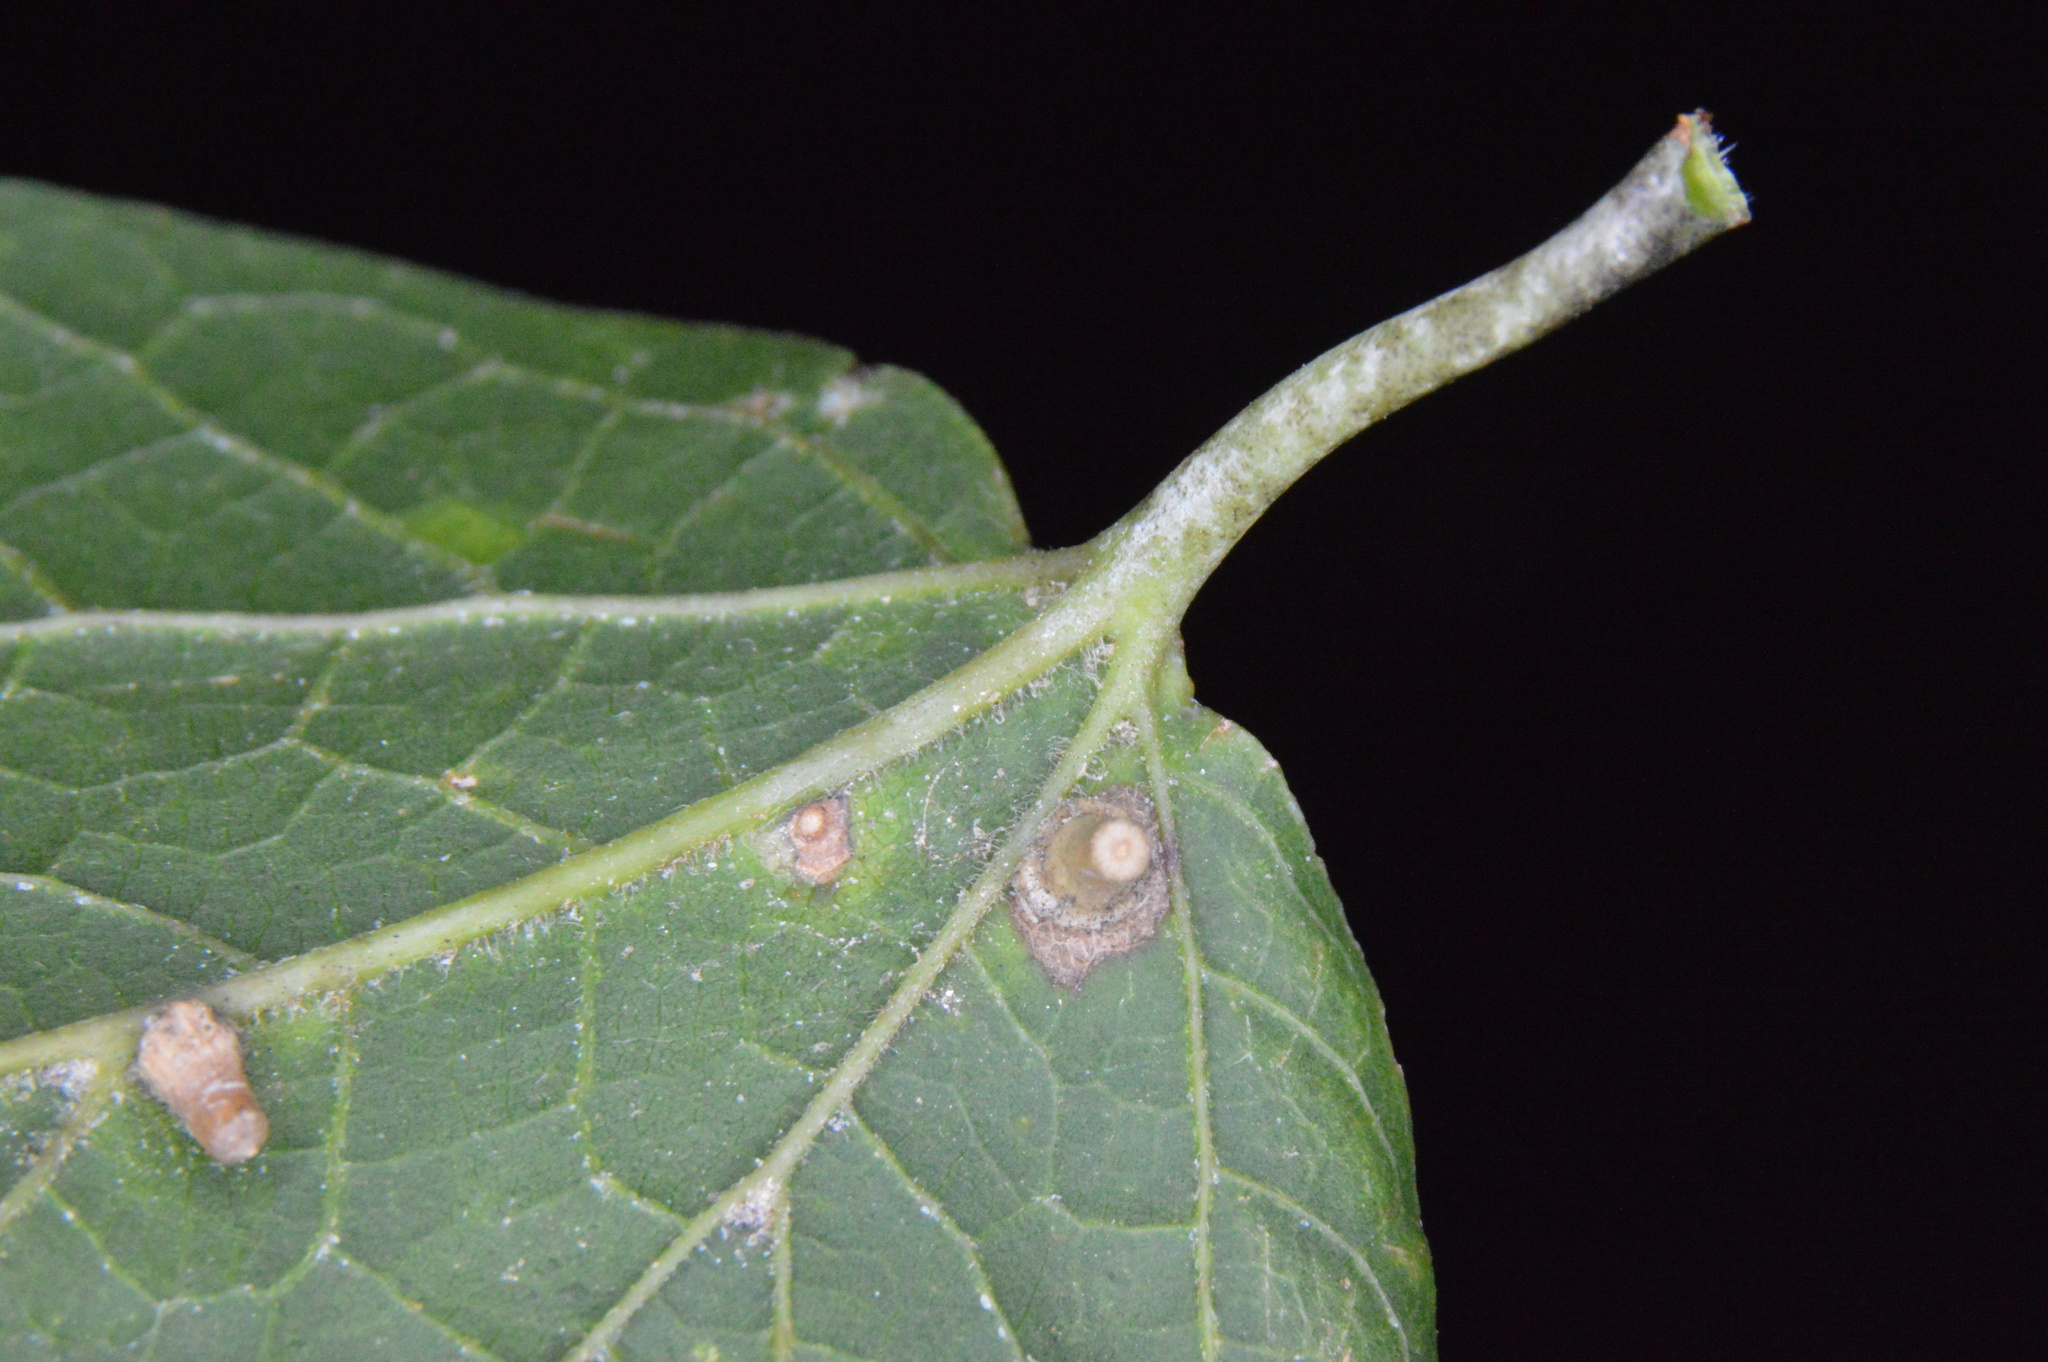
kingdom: Animalia
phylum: Arthropoda
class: Insecta
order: Diptera
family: Cecidomyiidae
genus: Celticecis
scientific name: Celticecis aciculata
